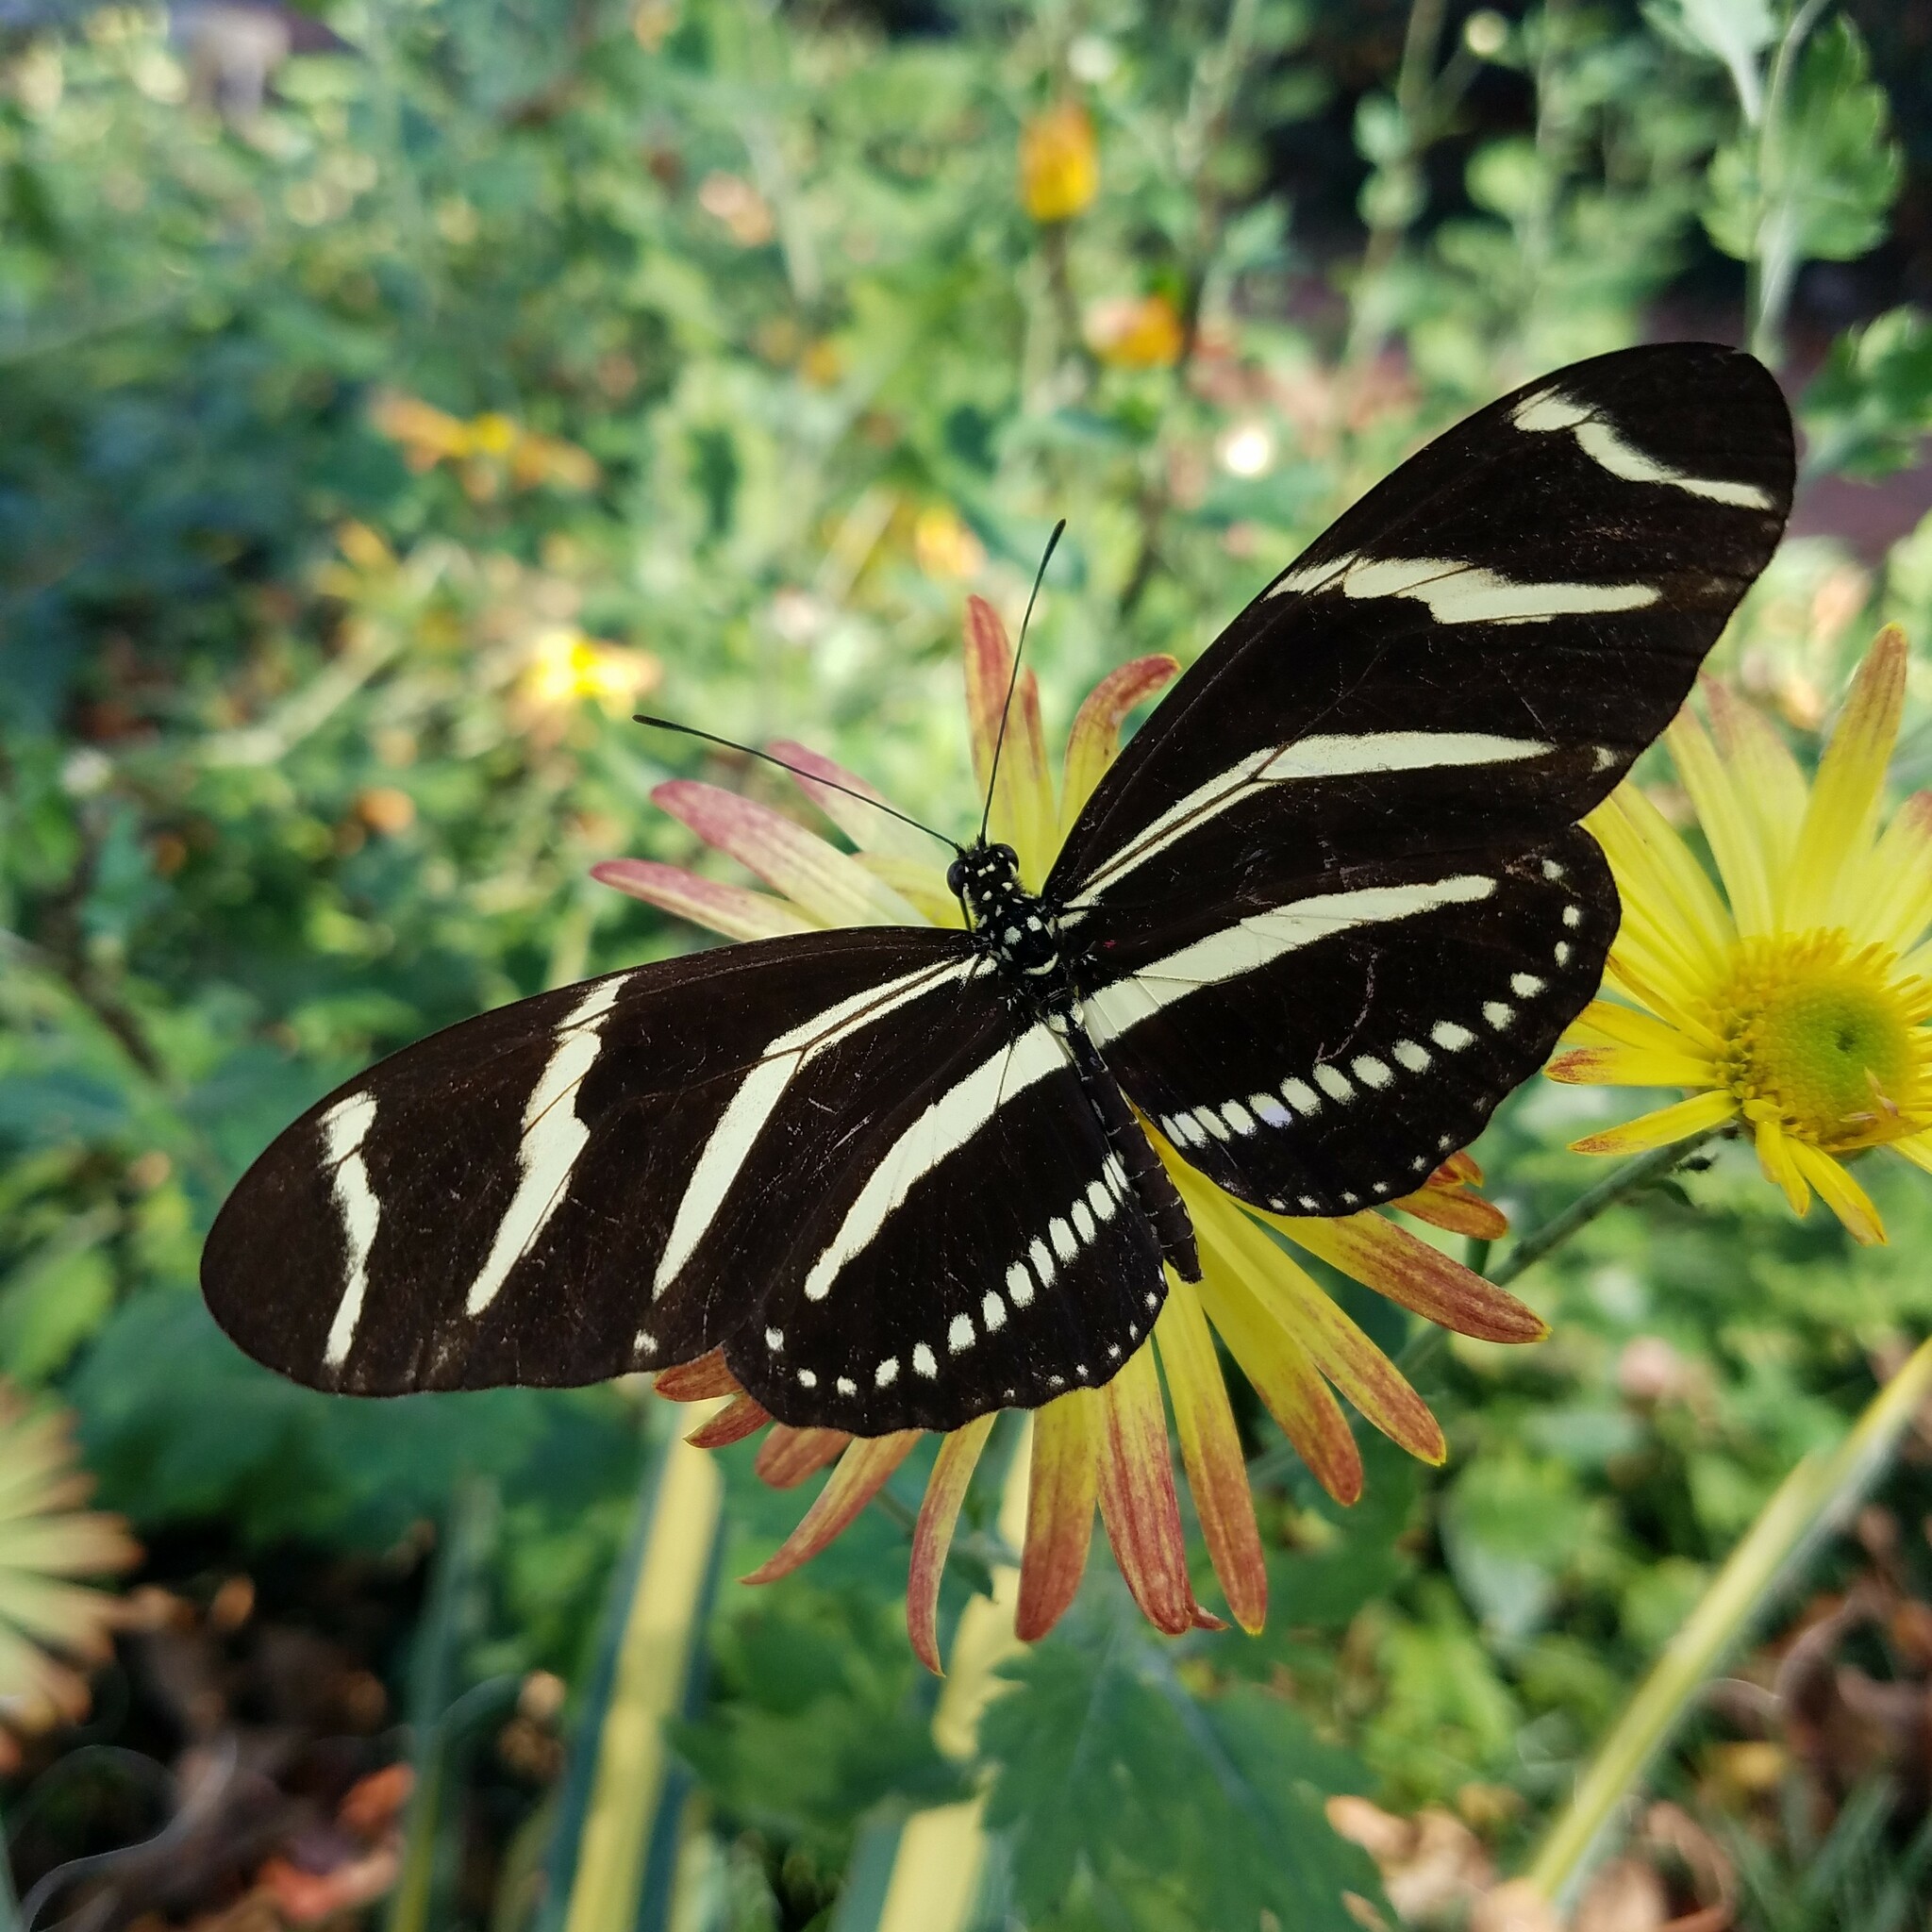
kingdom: Animalia
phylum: Arthropoda
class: Insecta
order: Lepidoptera
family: Nymphalidae
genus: Heliconius
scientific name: Heliconius charithonia
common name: Zebra long wing
